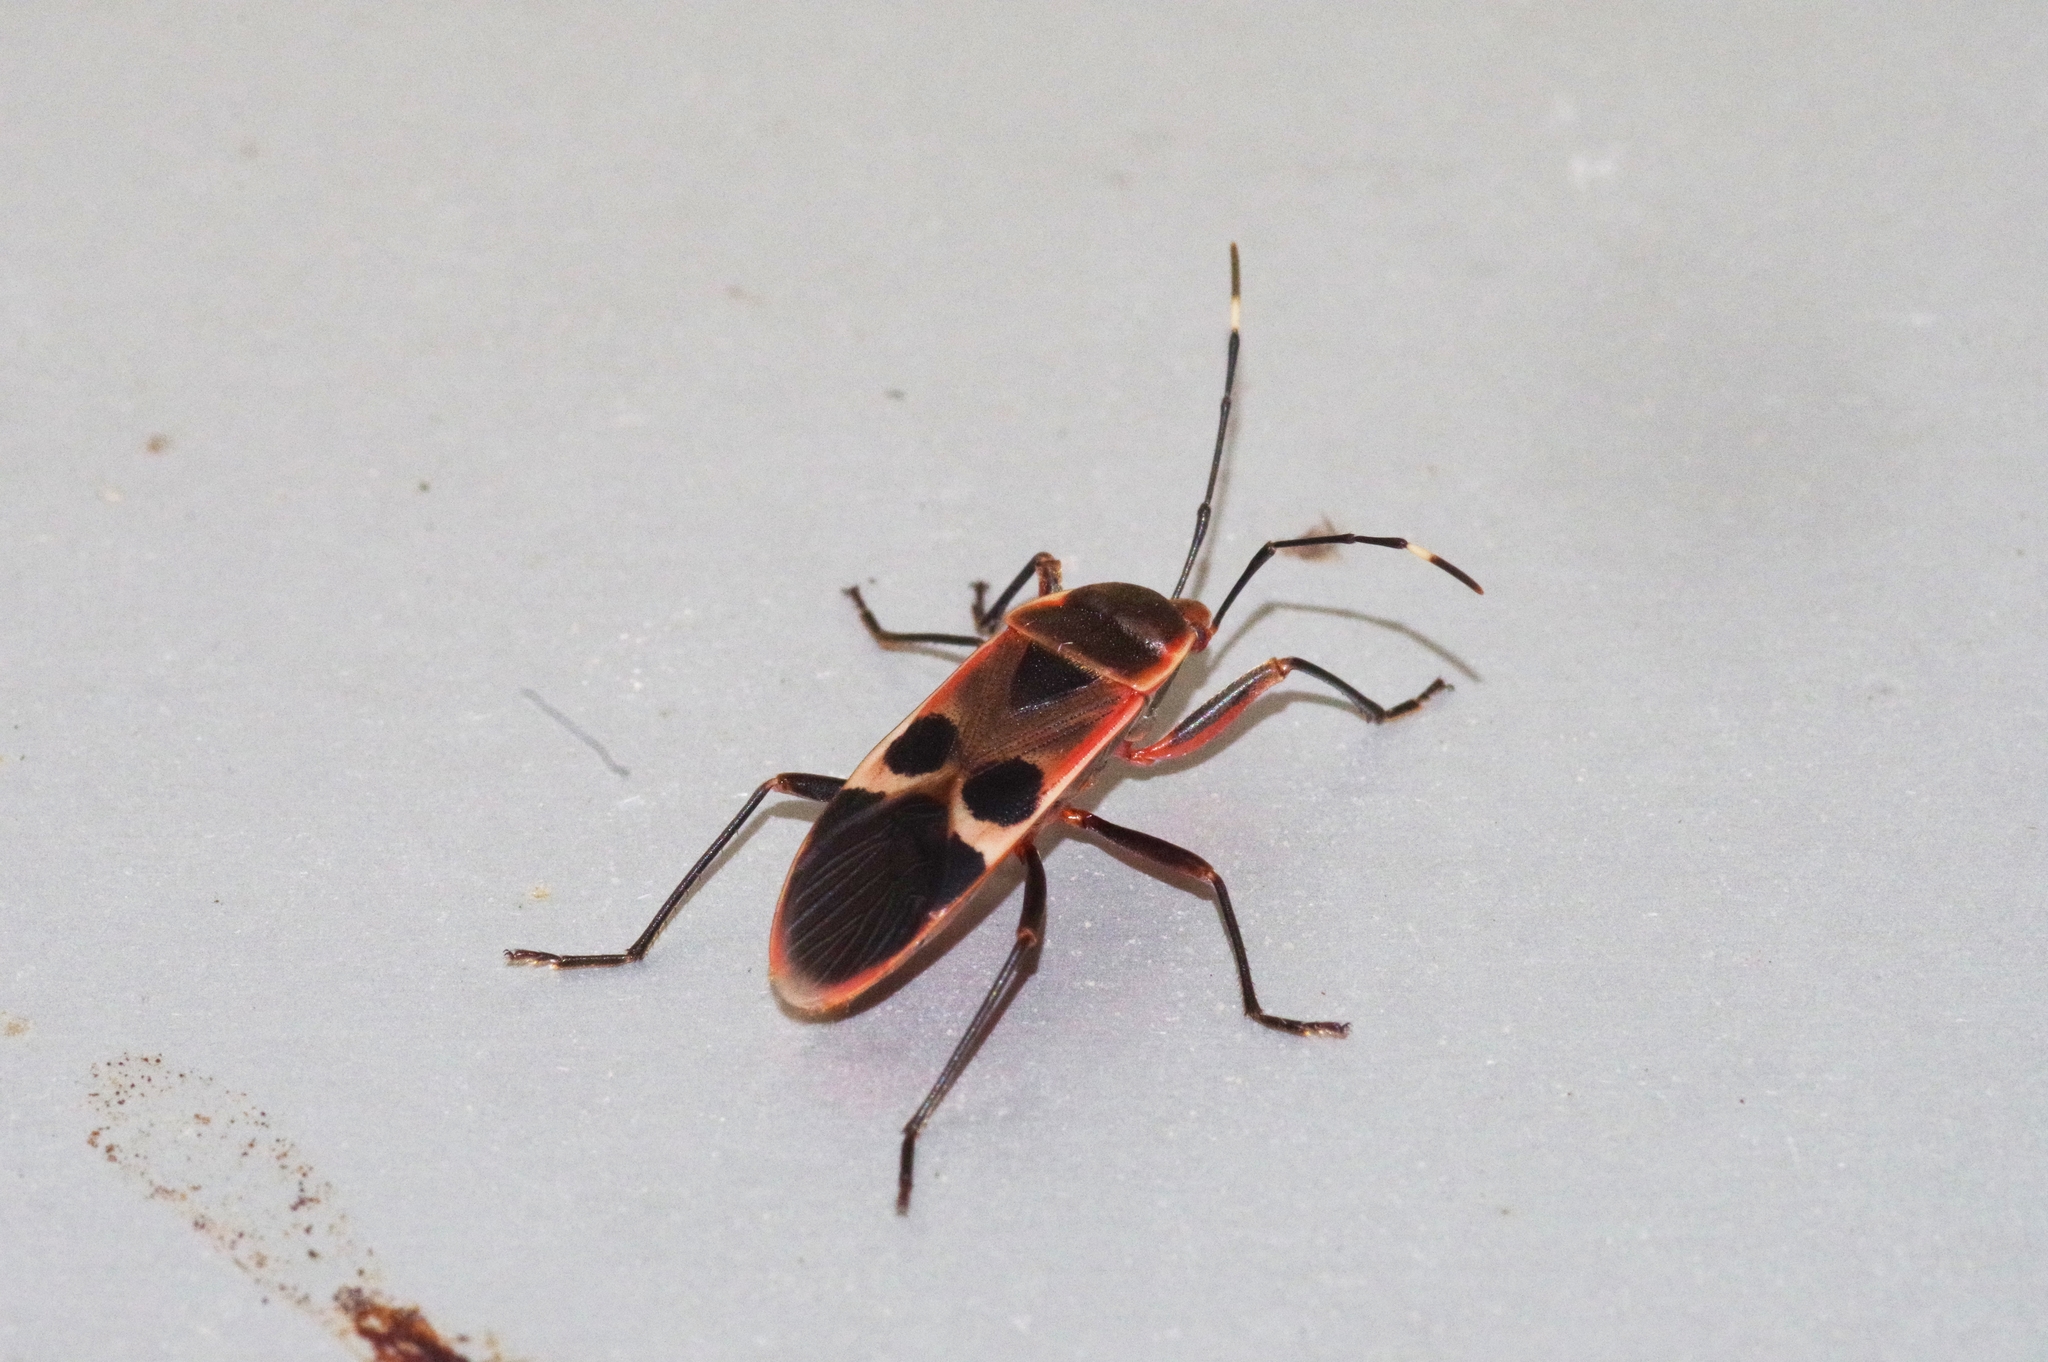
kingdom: Animalia
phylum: Arthropoda
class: Insecta
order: Hemiptera
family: Largidae
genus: Physopelta
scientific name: Physopelta gutta
